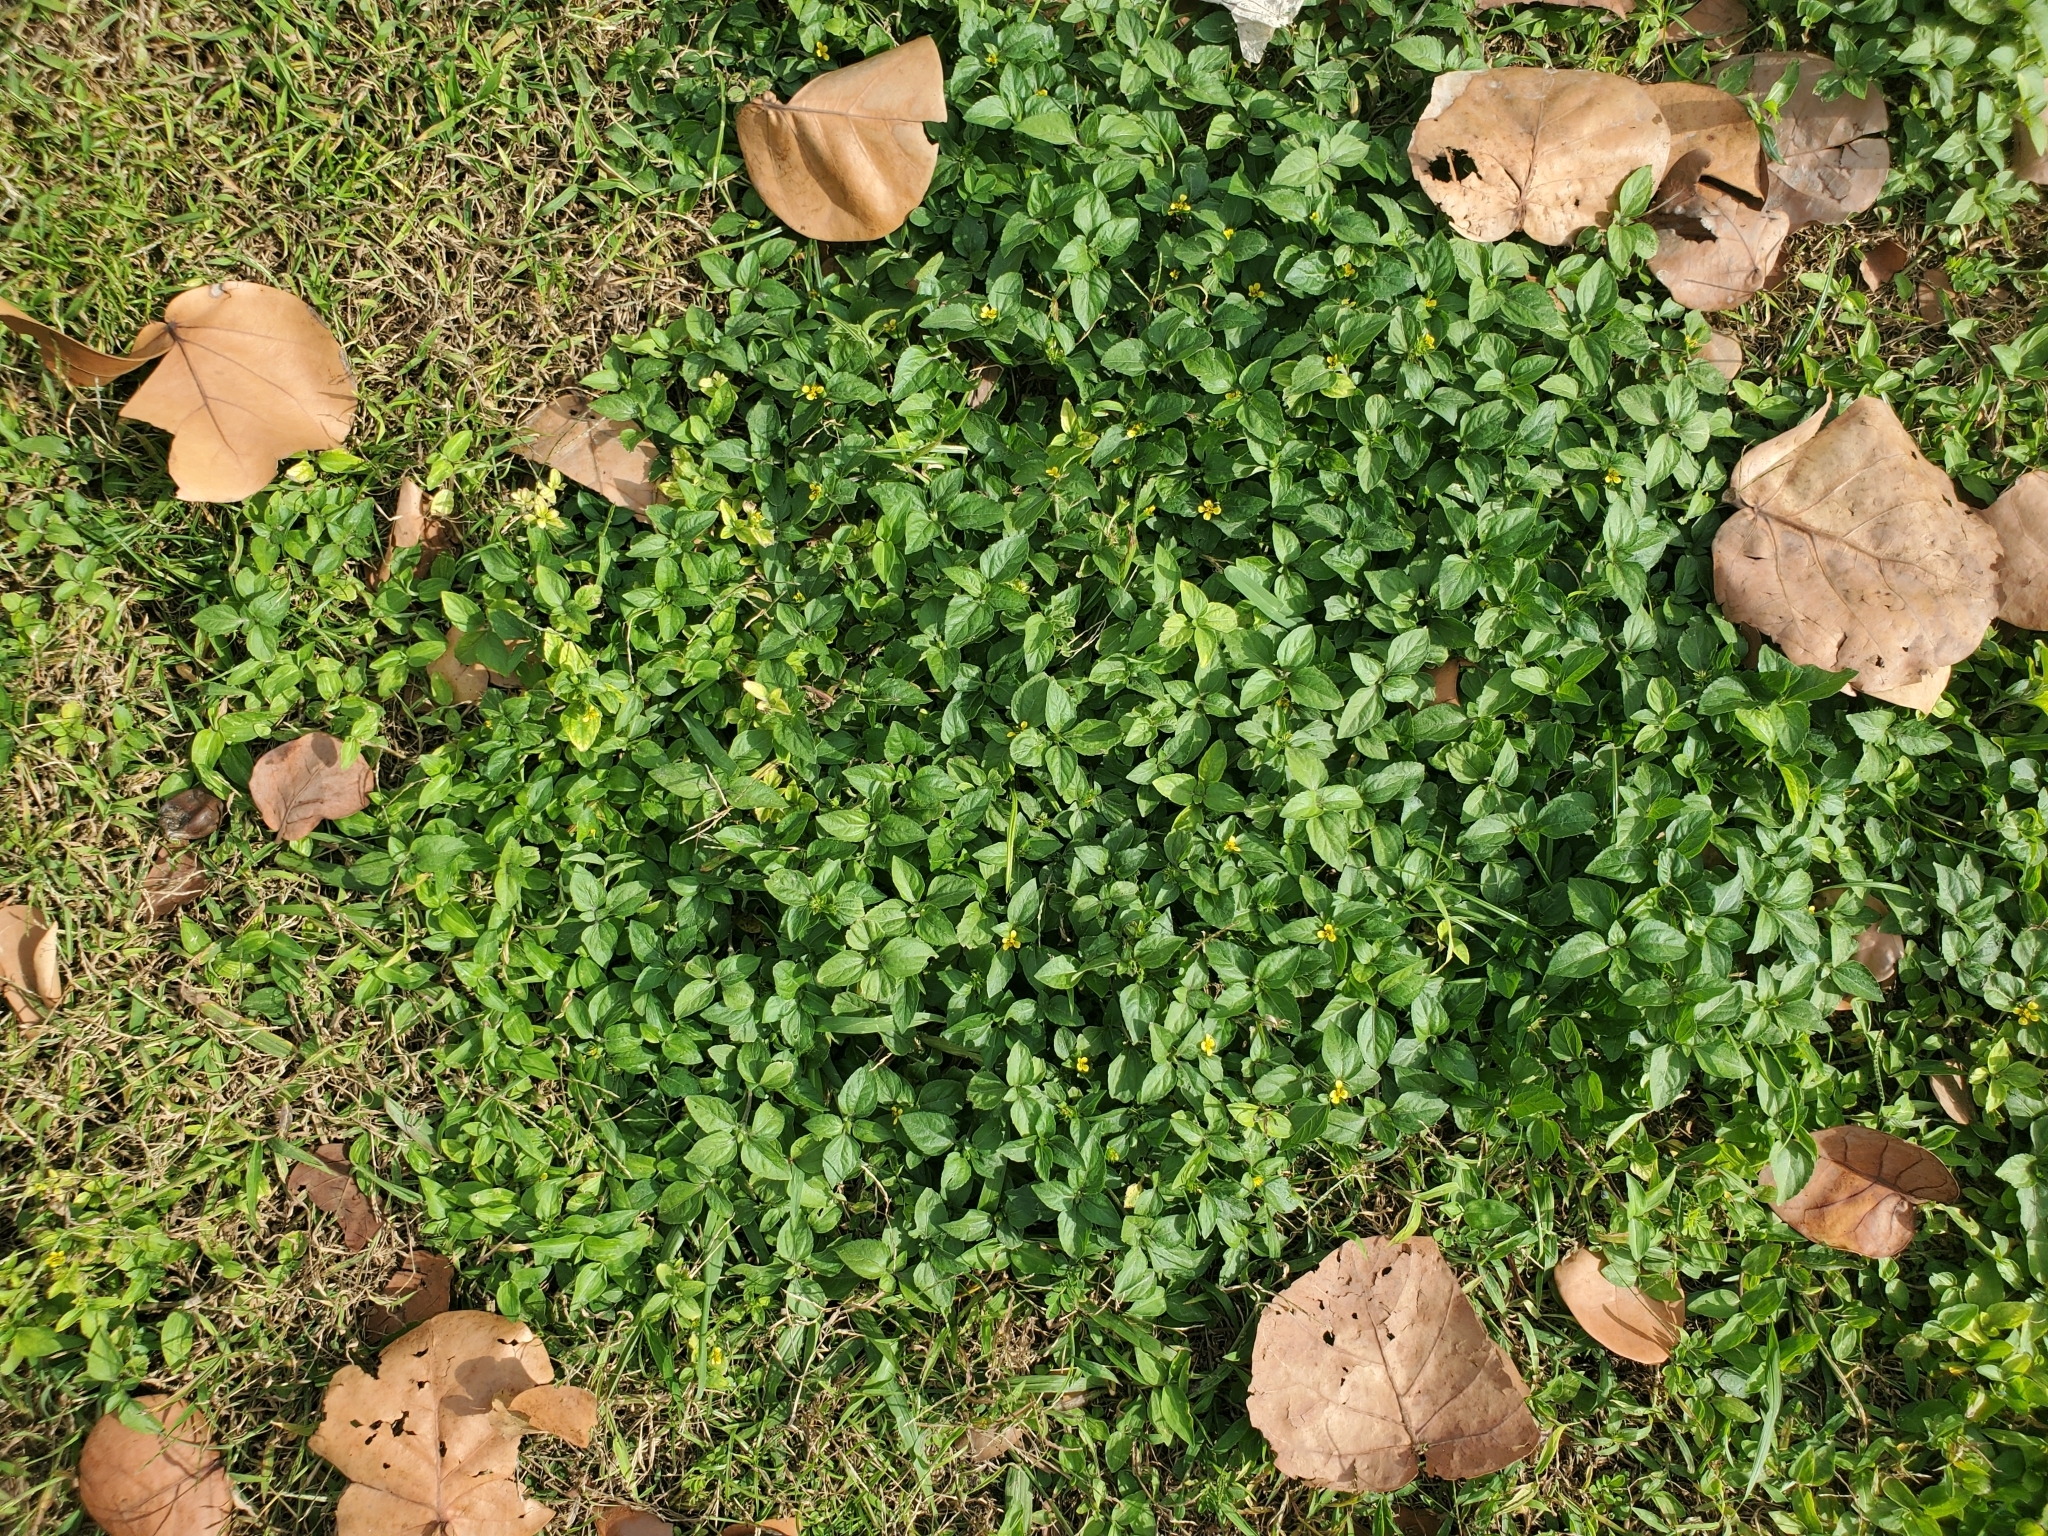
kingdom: Plantae
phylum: Tracheophyta
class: Magnoliopsida
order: Asterales
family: Asteraceae
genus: Calyptocarpus
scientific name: Calyptocarpus vialis
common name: Straggler daisy
